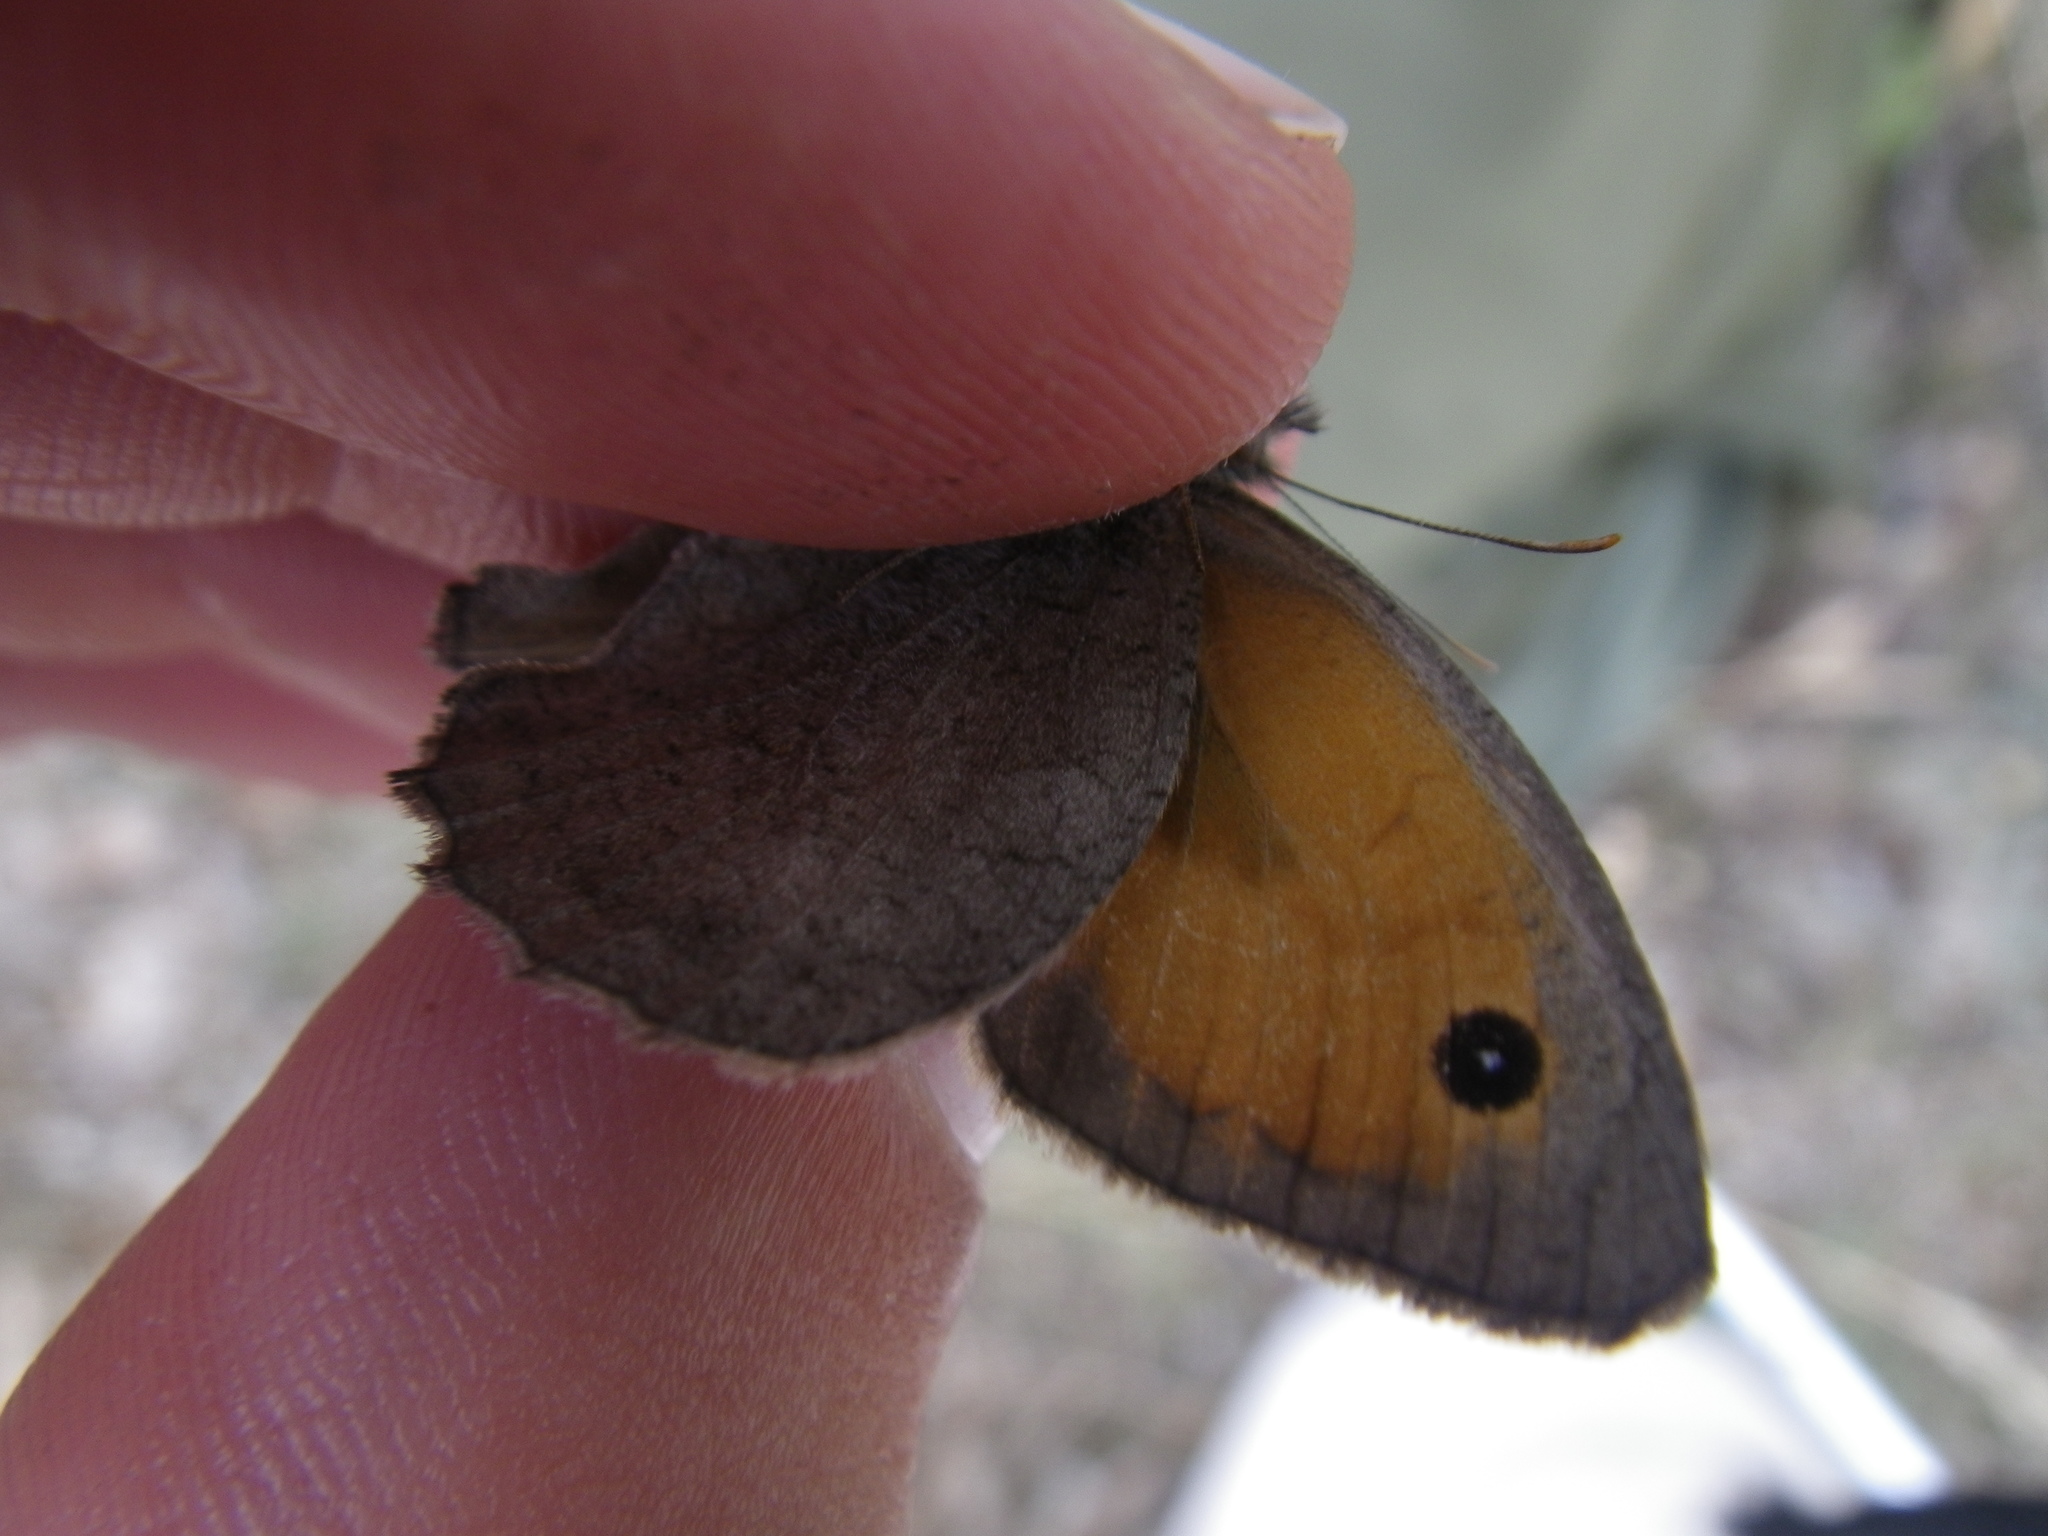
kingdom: Animalia
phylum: Arthropoda
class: Insecta
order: Lepidoptera
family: Nymphalidae
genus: Hyponephele
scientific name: Hyponephele lupinus
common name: Oriental meadow brown
